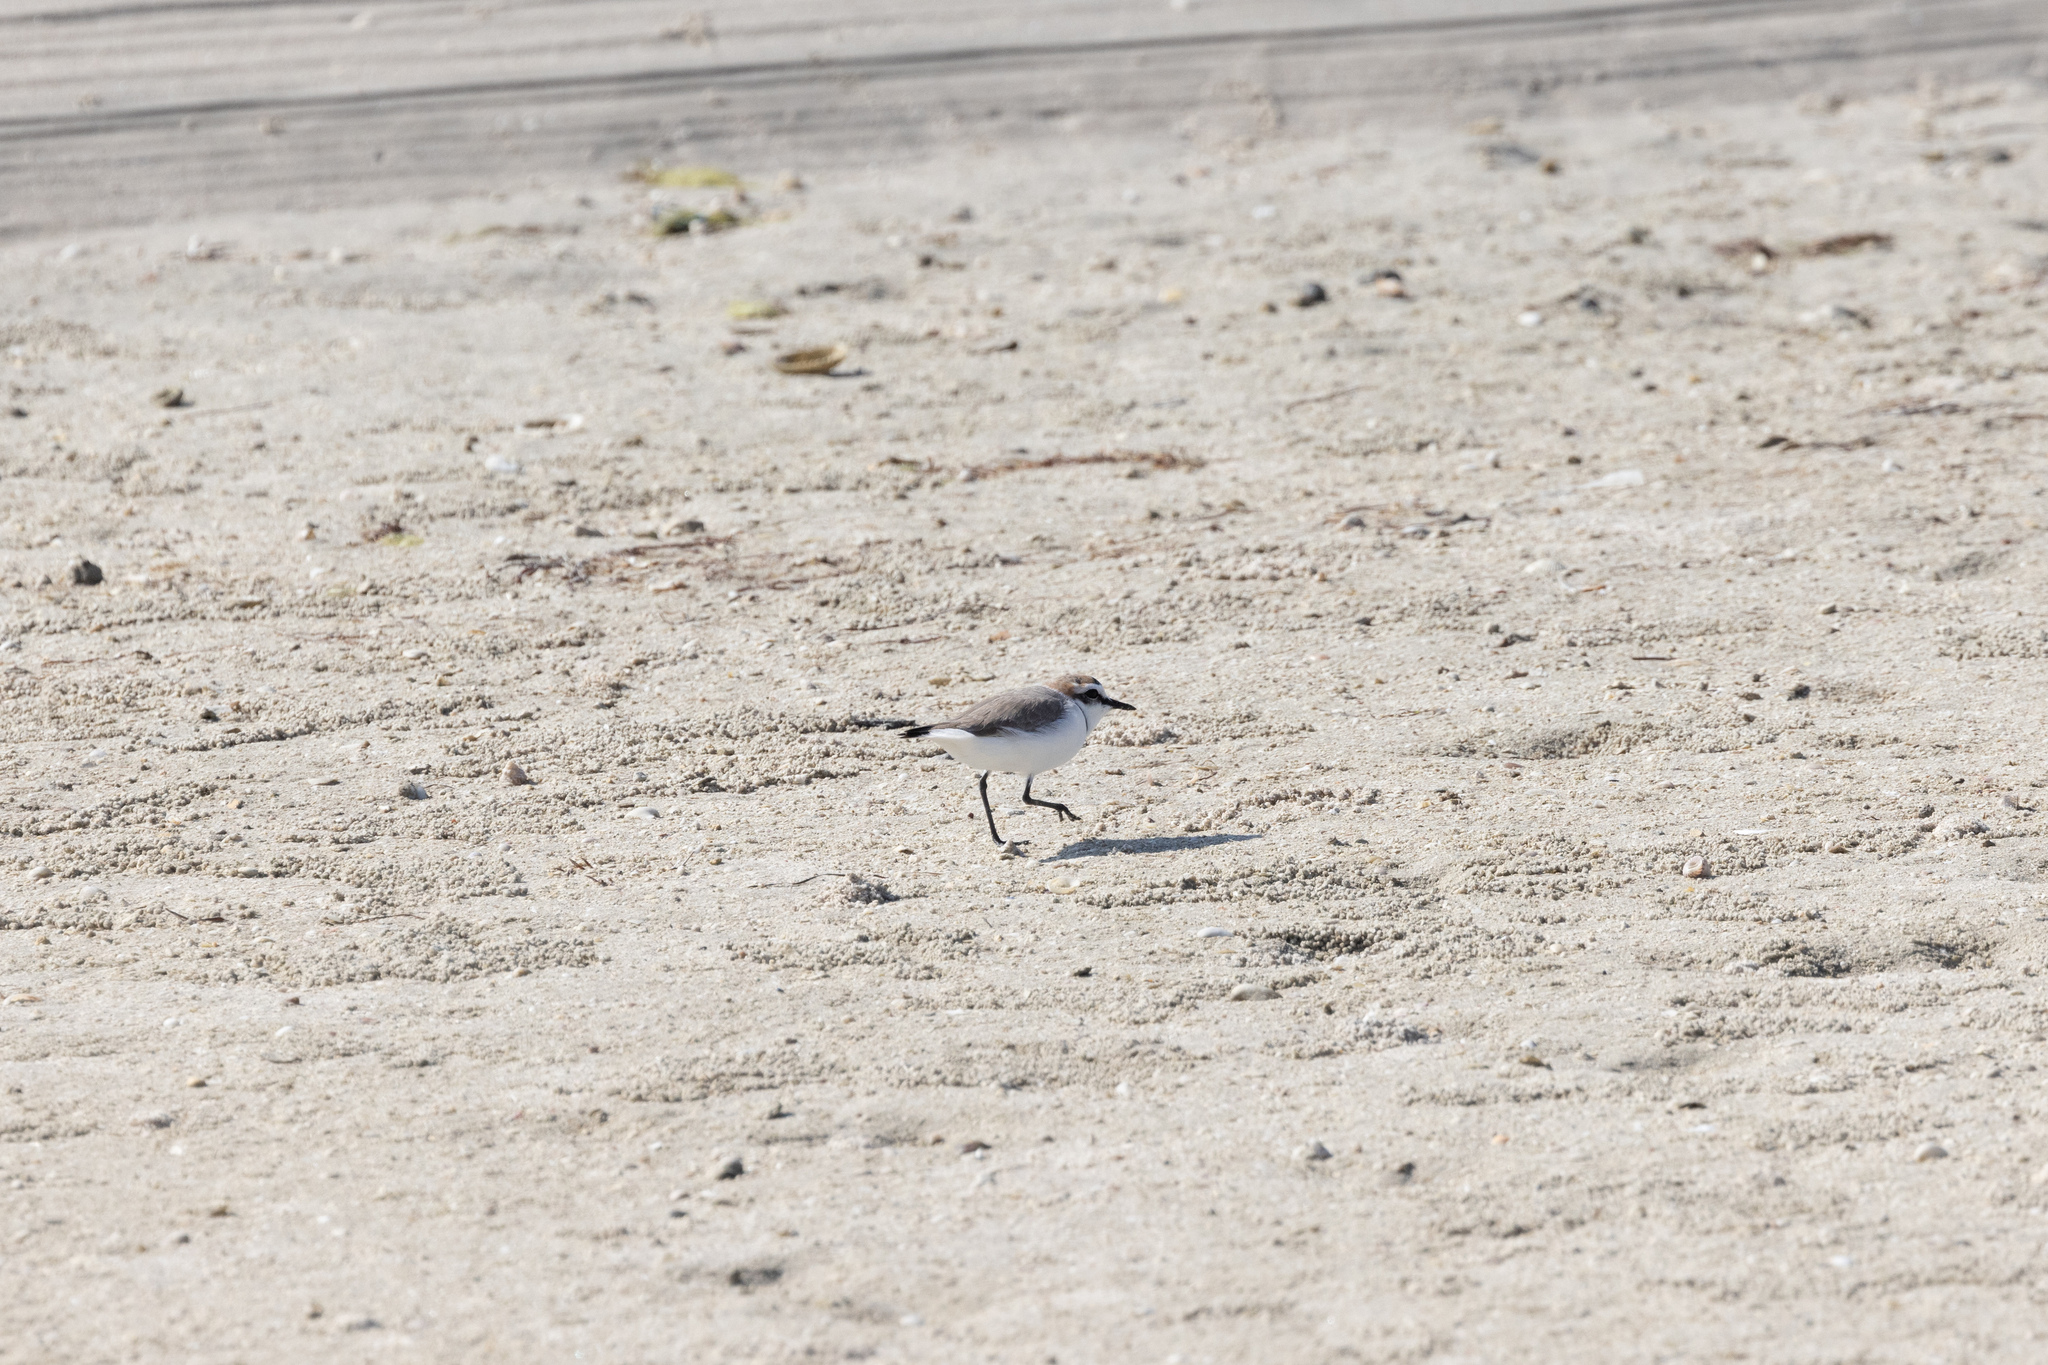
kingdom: Animalia
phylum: Chordata
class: Aves
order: Charadriiformes
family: Charadriidae
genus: Charadrius
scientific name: Charadrius alexandrinus
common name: Kentish plover
